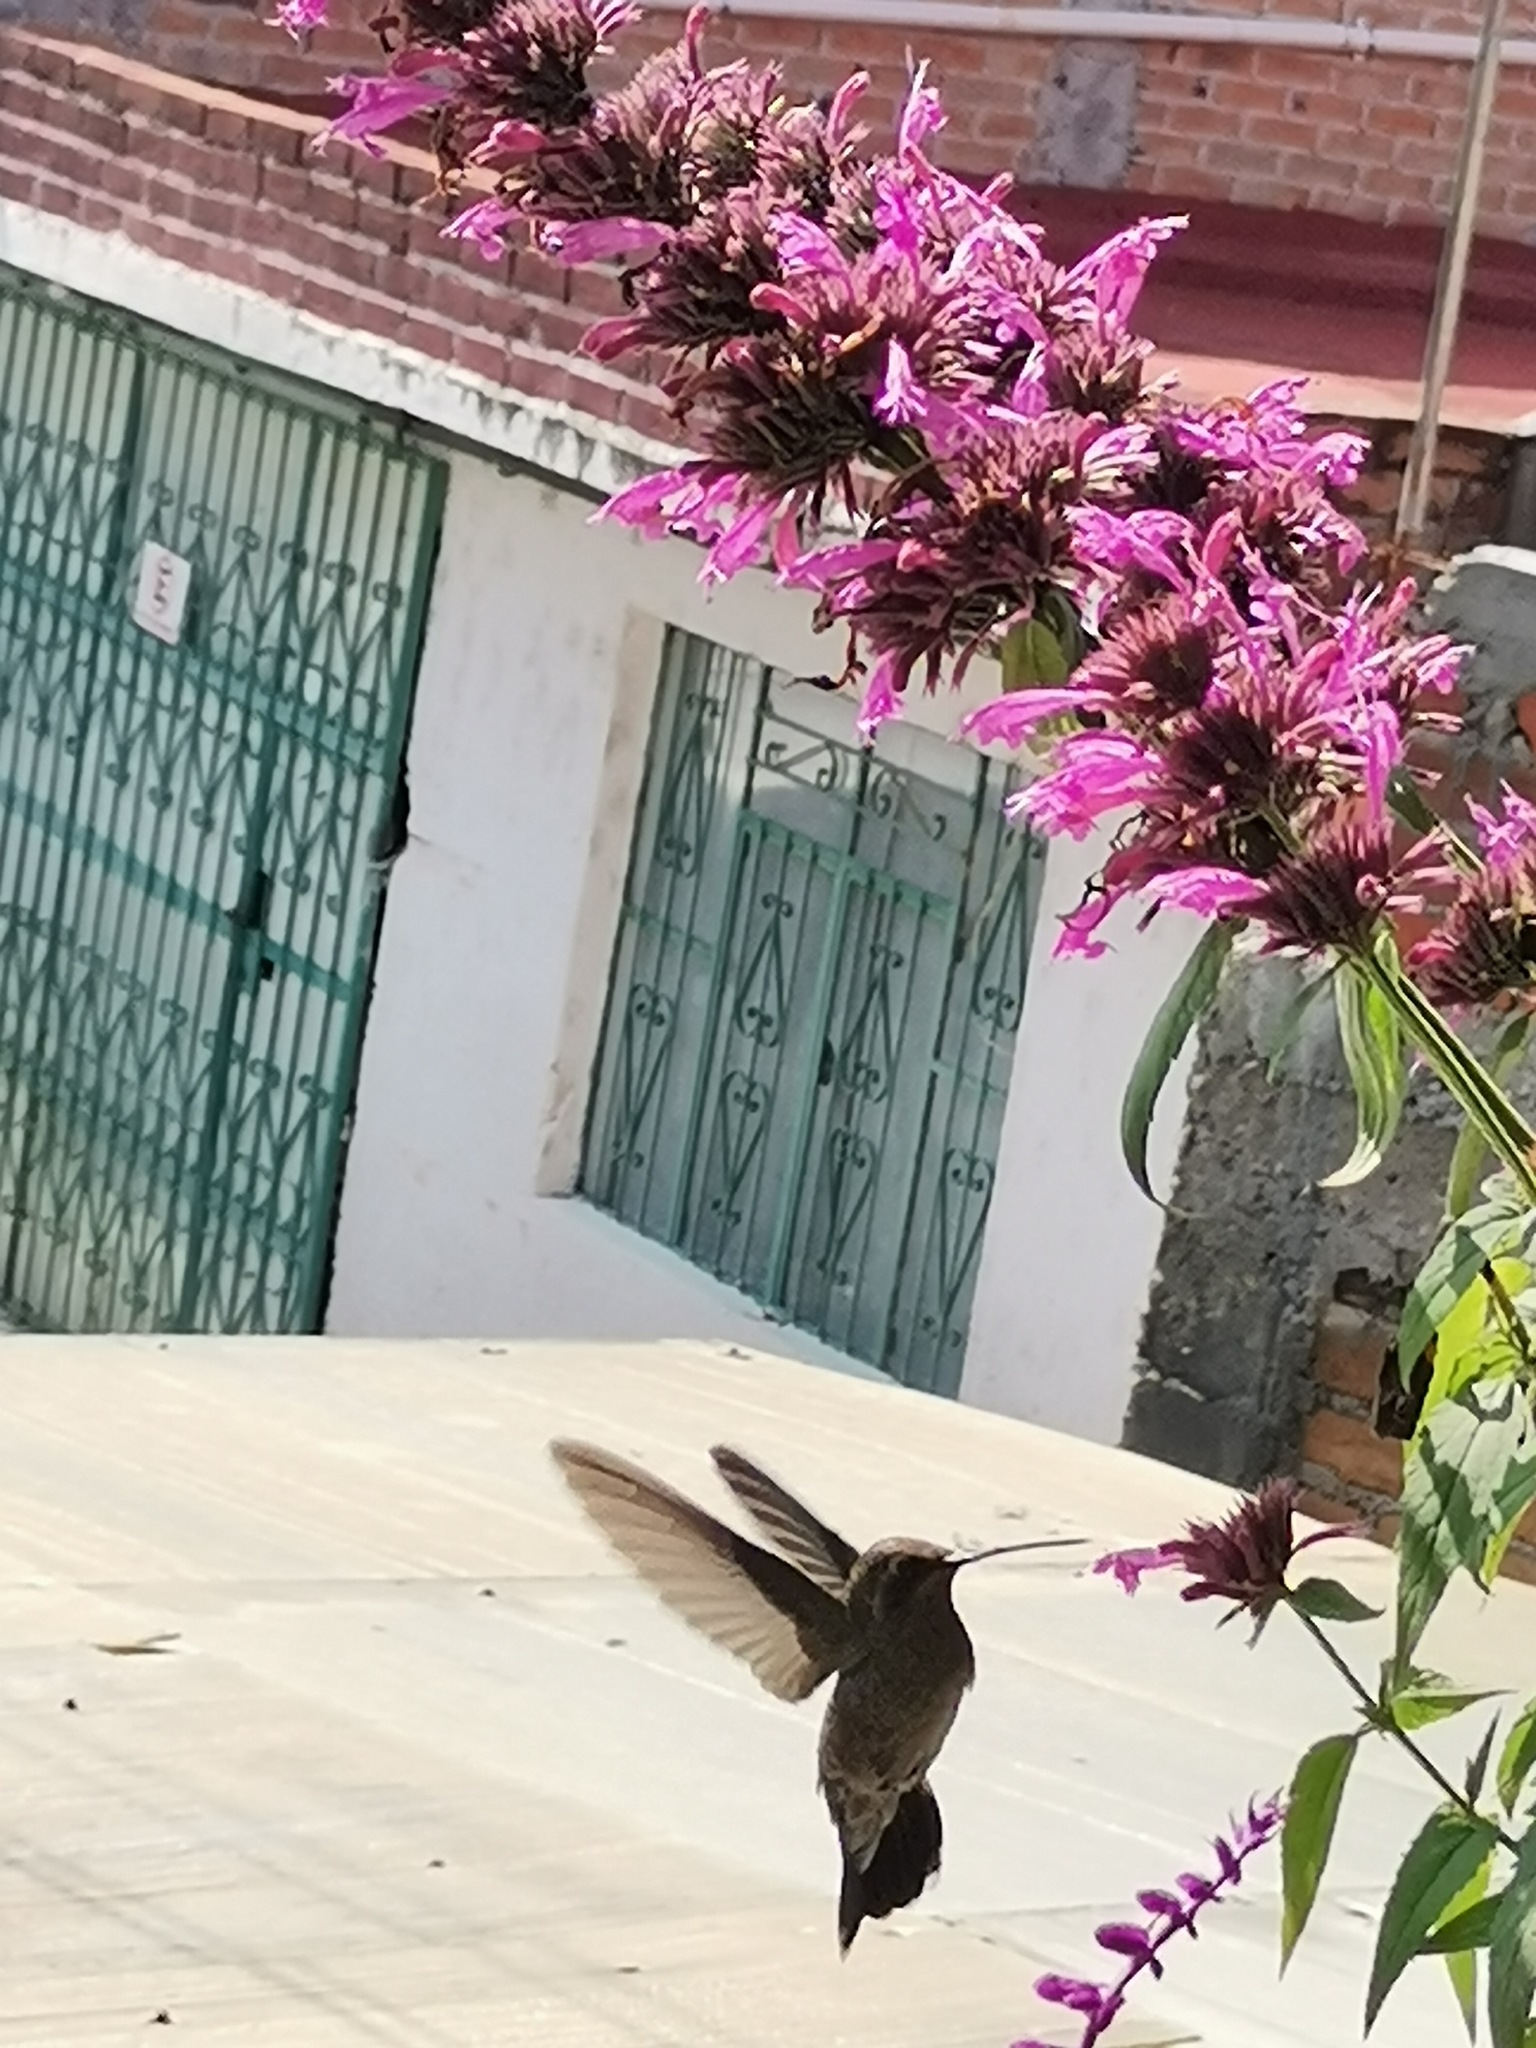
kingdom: Animalia
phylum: Chordata
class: Aves
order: Apodiformes
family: Trochilidae
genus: Cynanthus
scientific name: Cynanthus latirostris
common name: Broad-billed hummingbird
